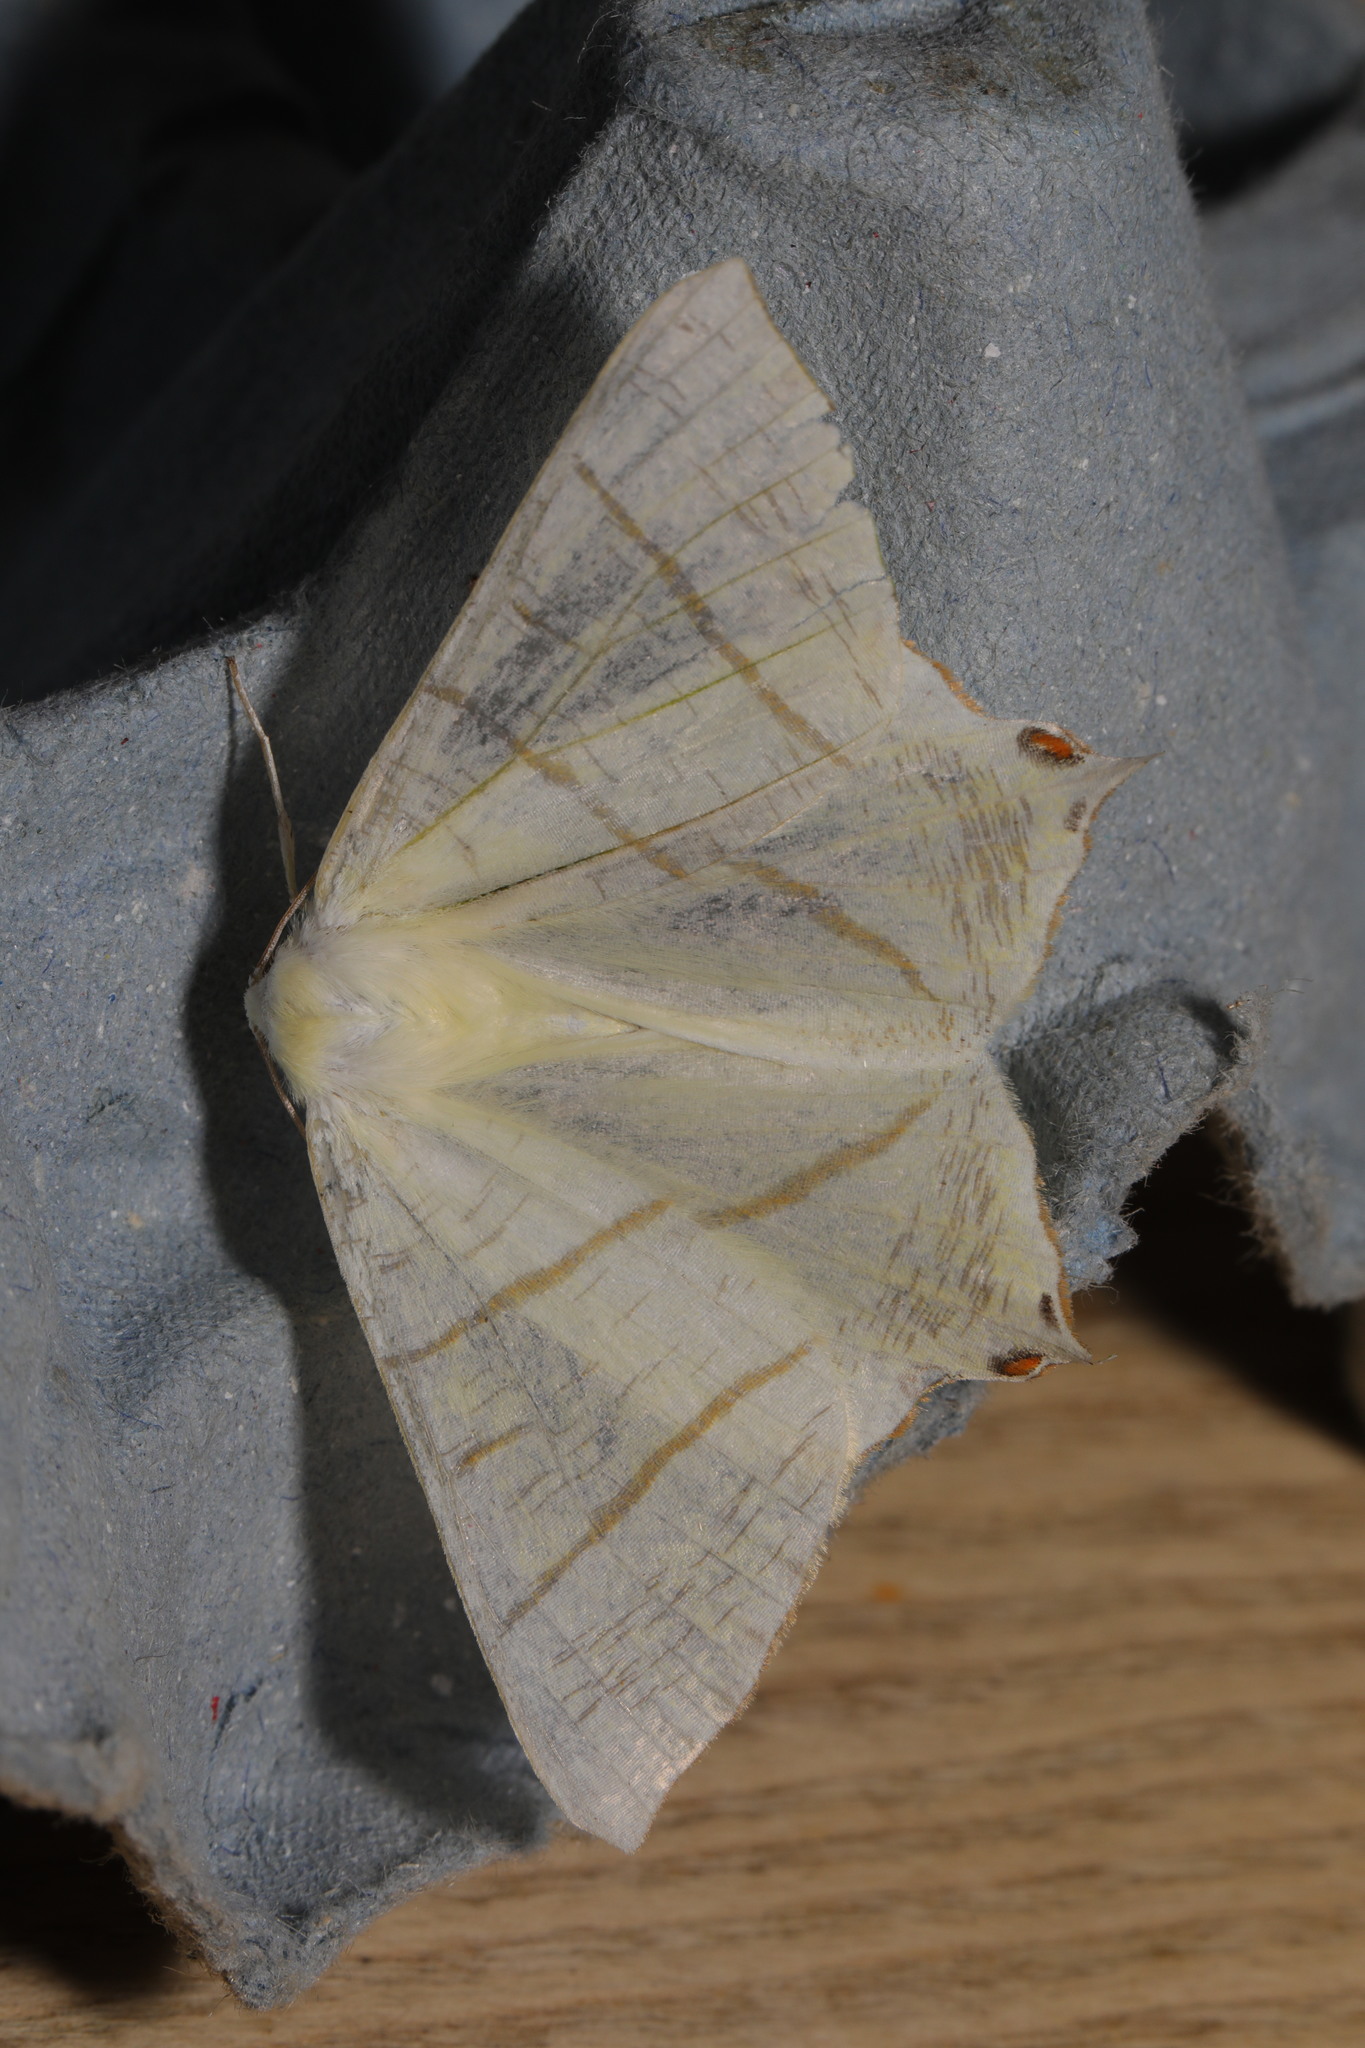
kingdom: Animalia
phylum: Arthropoda
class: Insecta
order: Lepidoptera
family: Geometridae
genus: Ourapteryx
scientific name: Ourapteryx sambucaria
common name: Swallow-tailed moth
